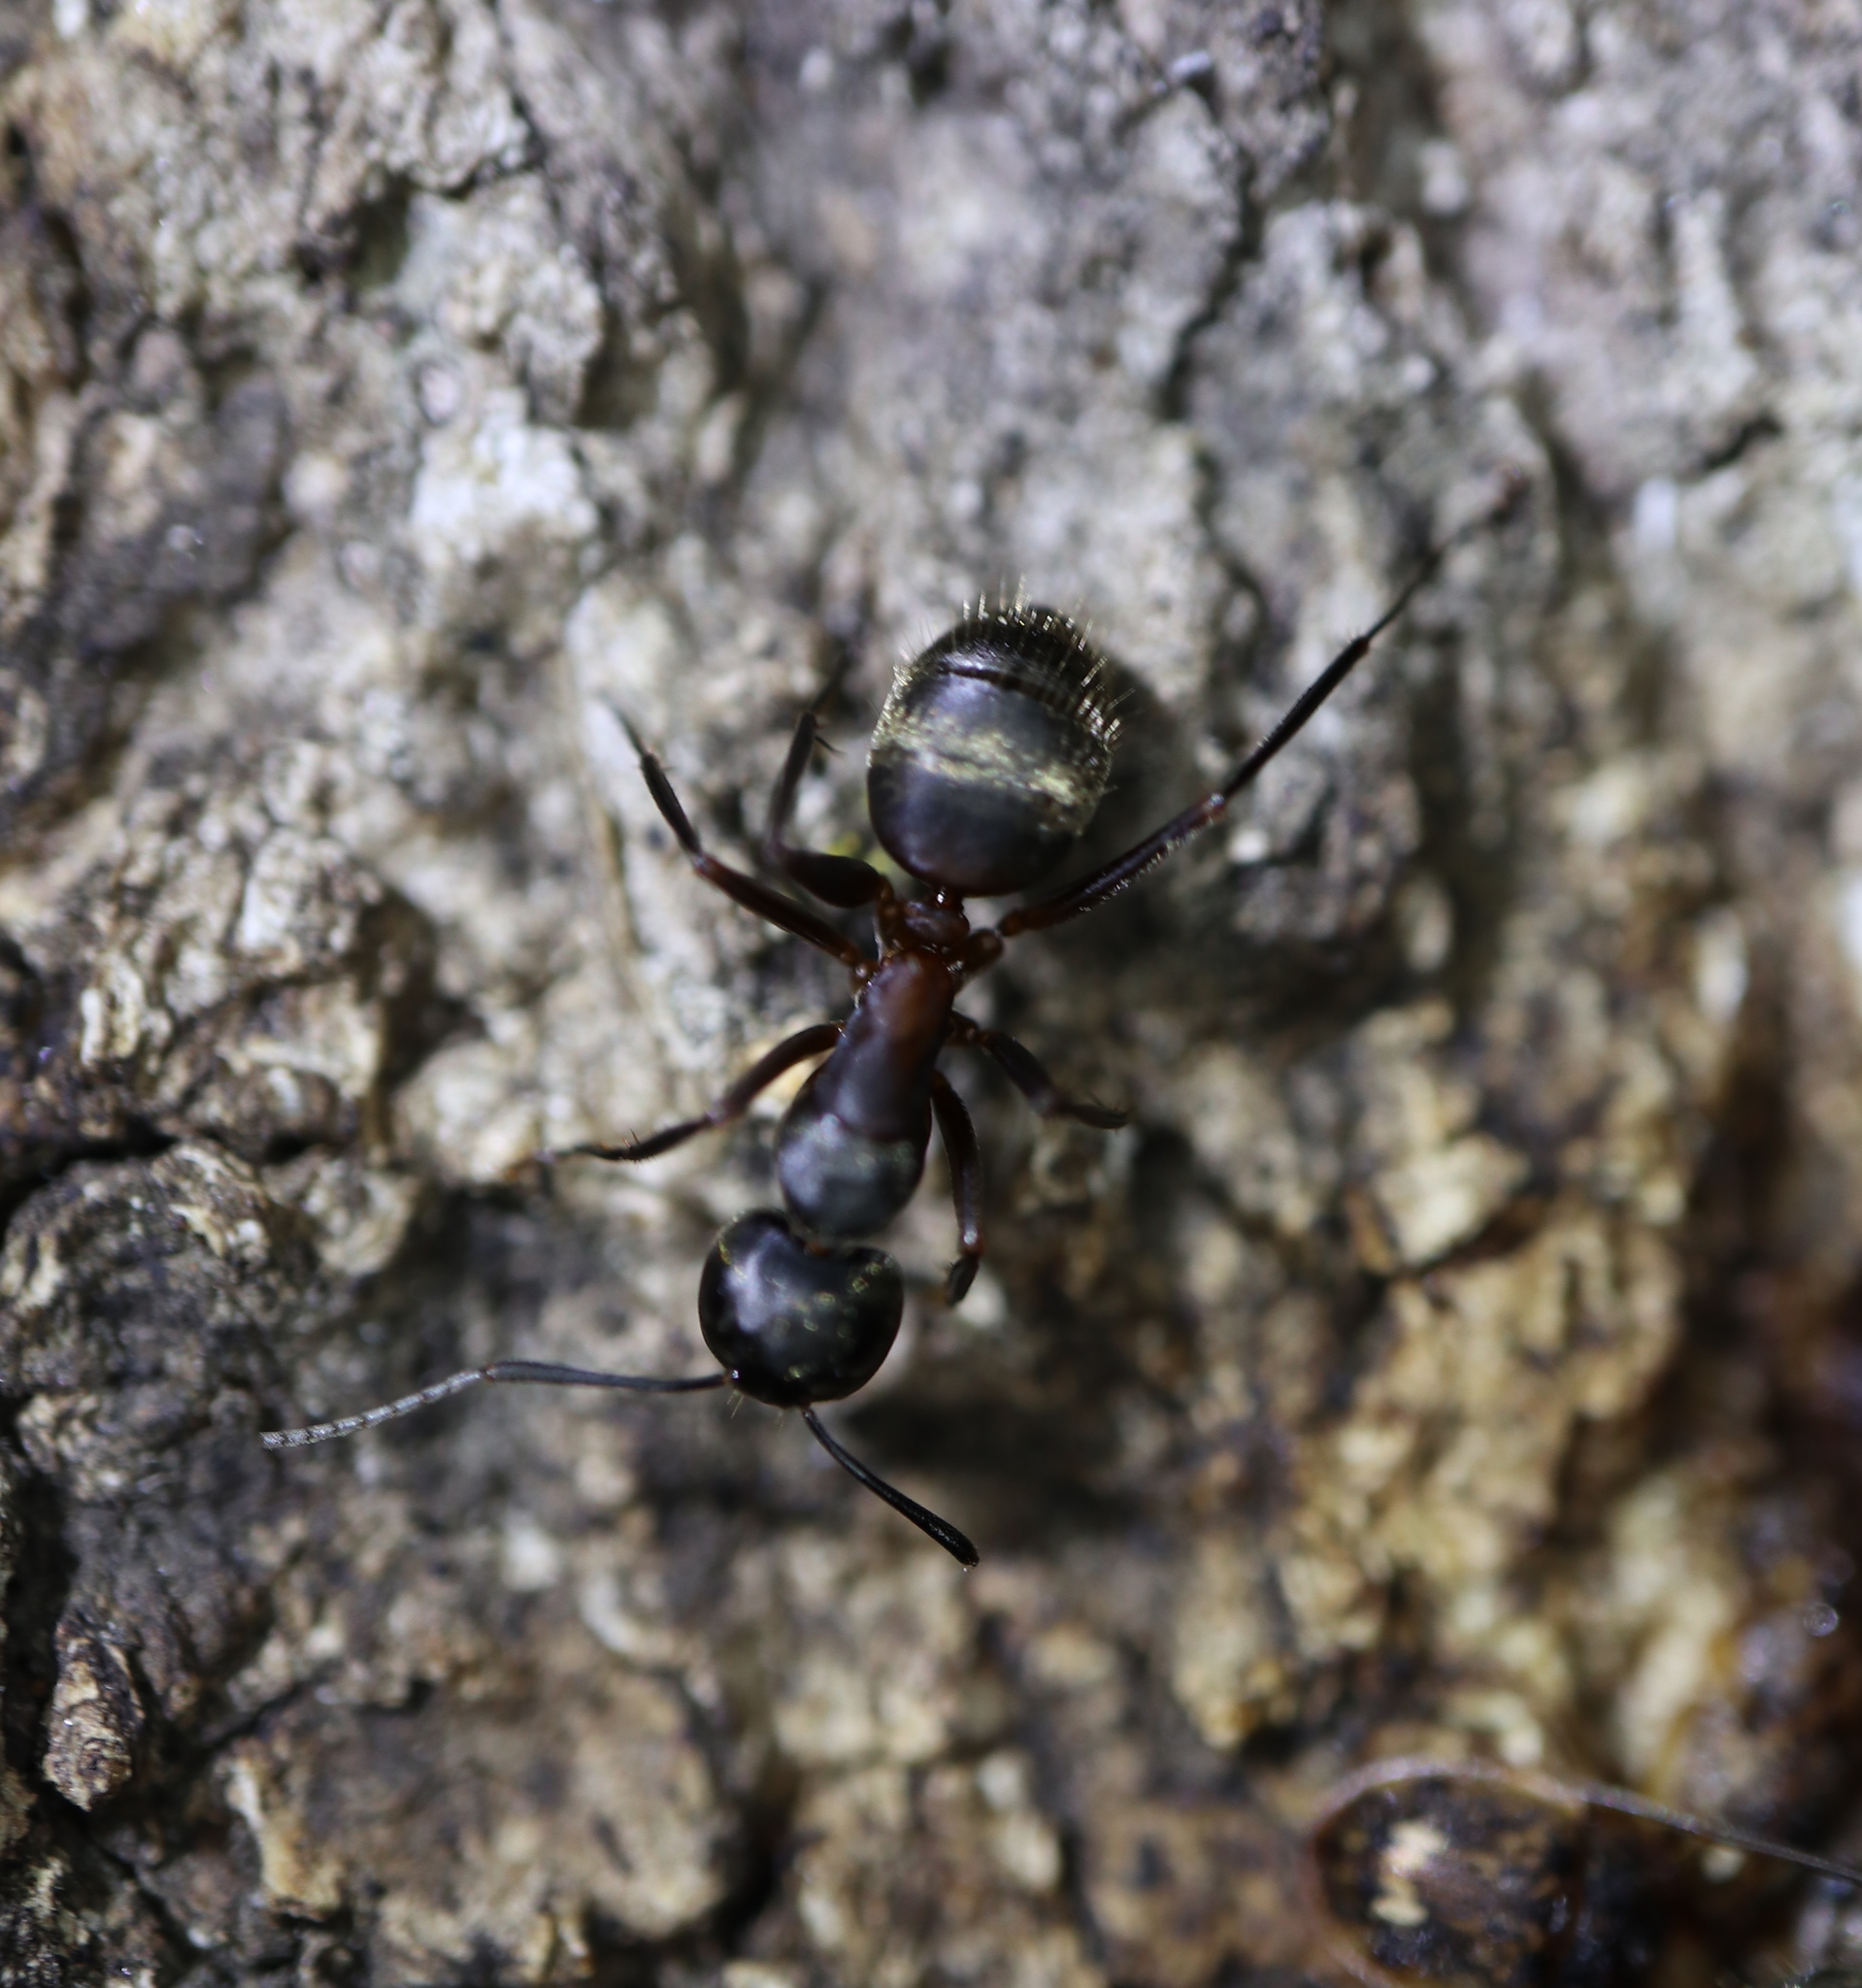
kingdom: Animalia
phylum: Arthropoda
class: Insecta
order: Hymenoptera
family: Formicidae
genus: Camponotus
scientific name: Camponotus chromaiodes
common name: Red carpenter ant
